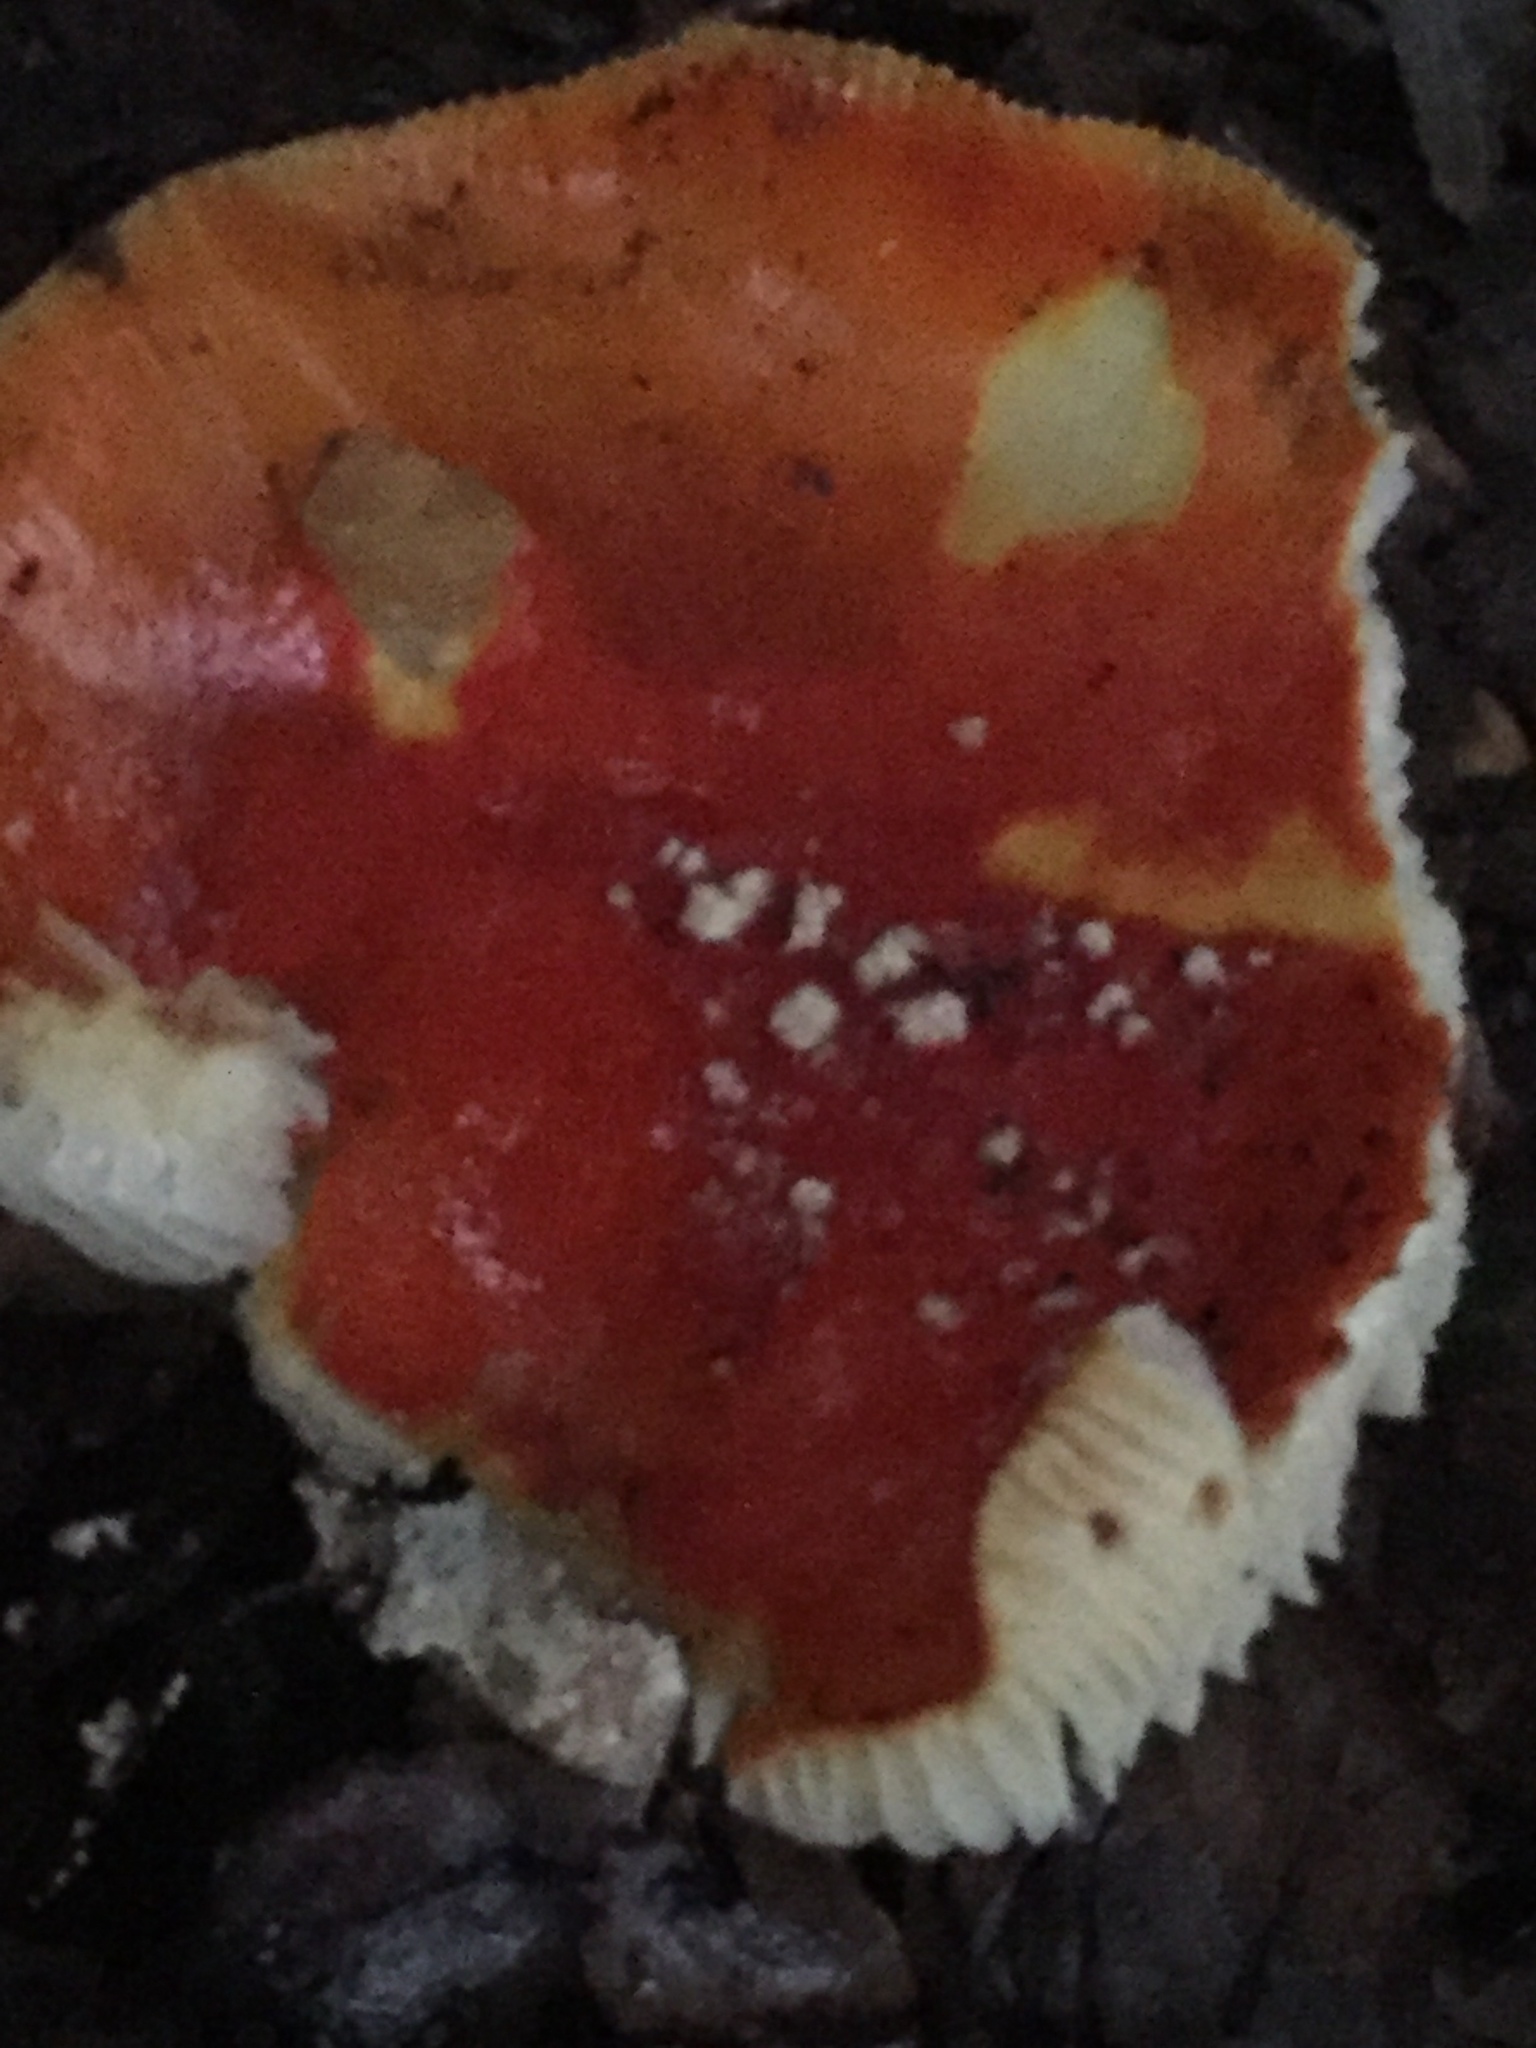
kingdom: Fungi
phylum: Basidiomycota
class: Agaricomycetes
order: Agaricales
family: Amanitaceae
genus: Amanita
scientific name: Amanita muscaria
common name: Fly agaric
